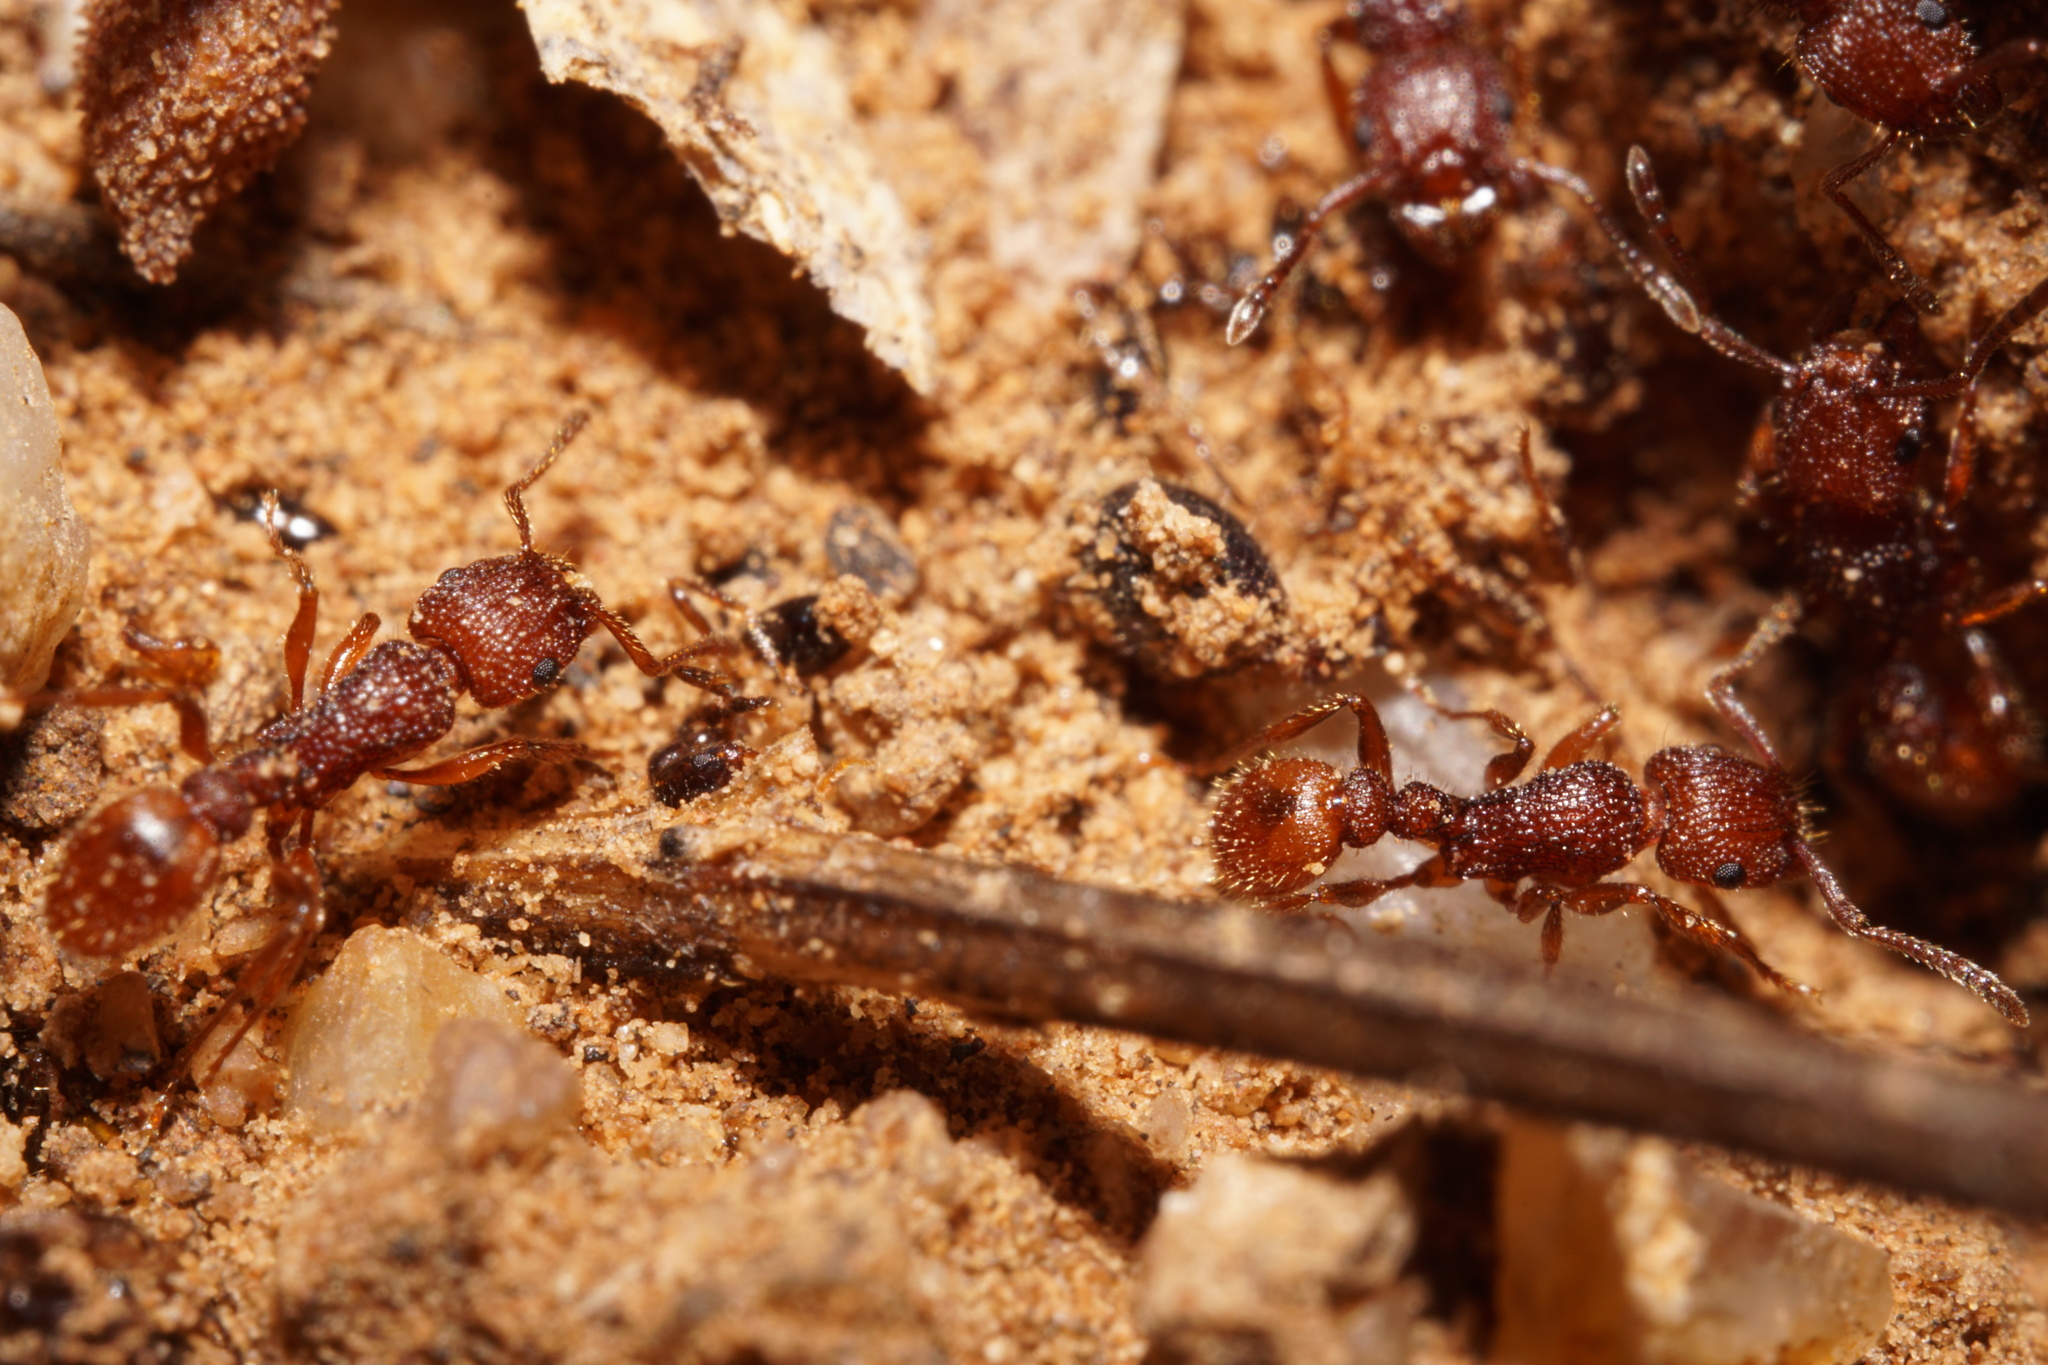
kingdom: Animalia
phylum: Arthropoda
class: Insecta
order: Hymenoptera
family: Formicidae
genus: Tetramorium
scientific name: Tetramorium hispidum
